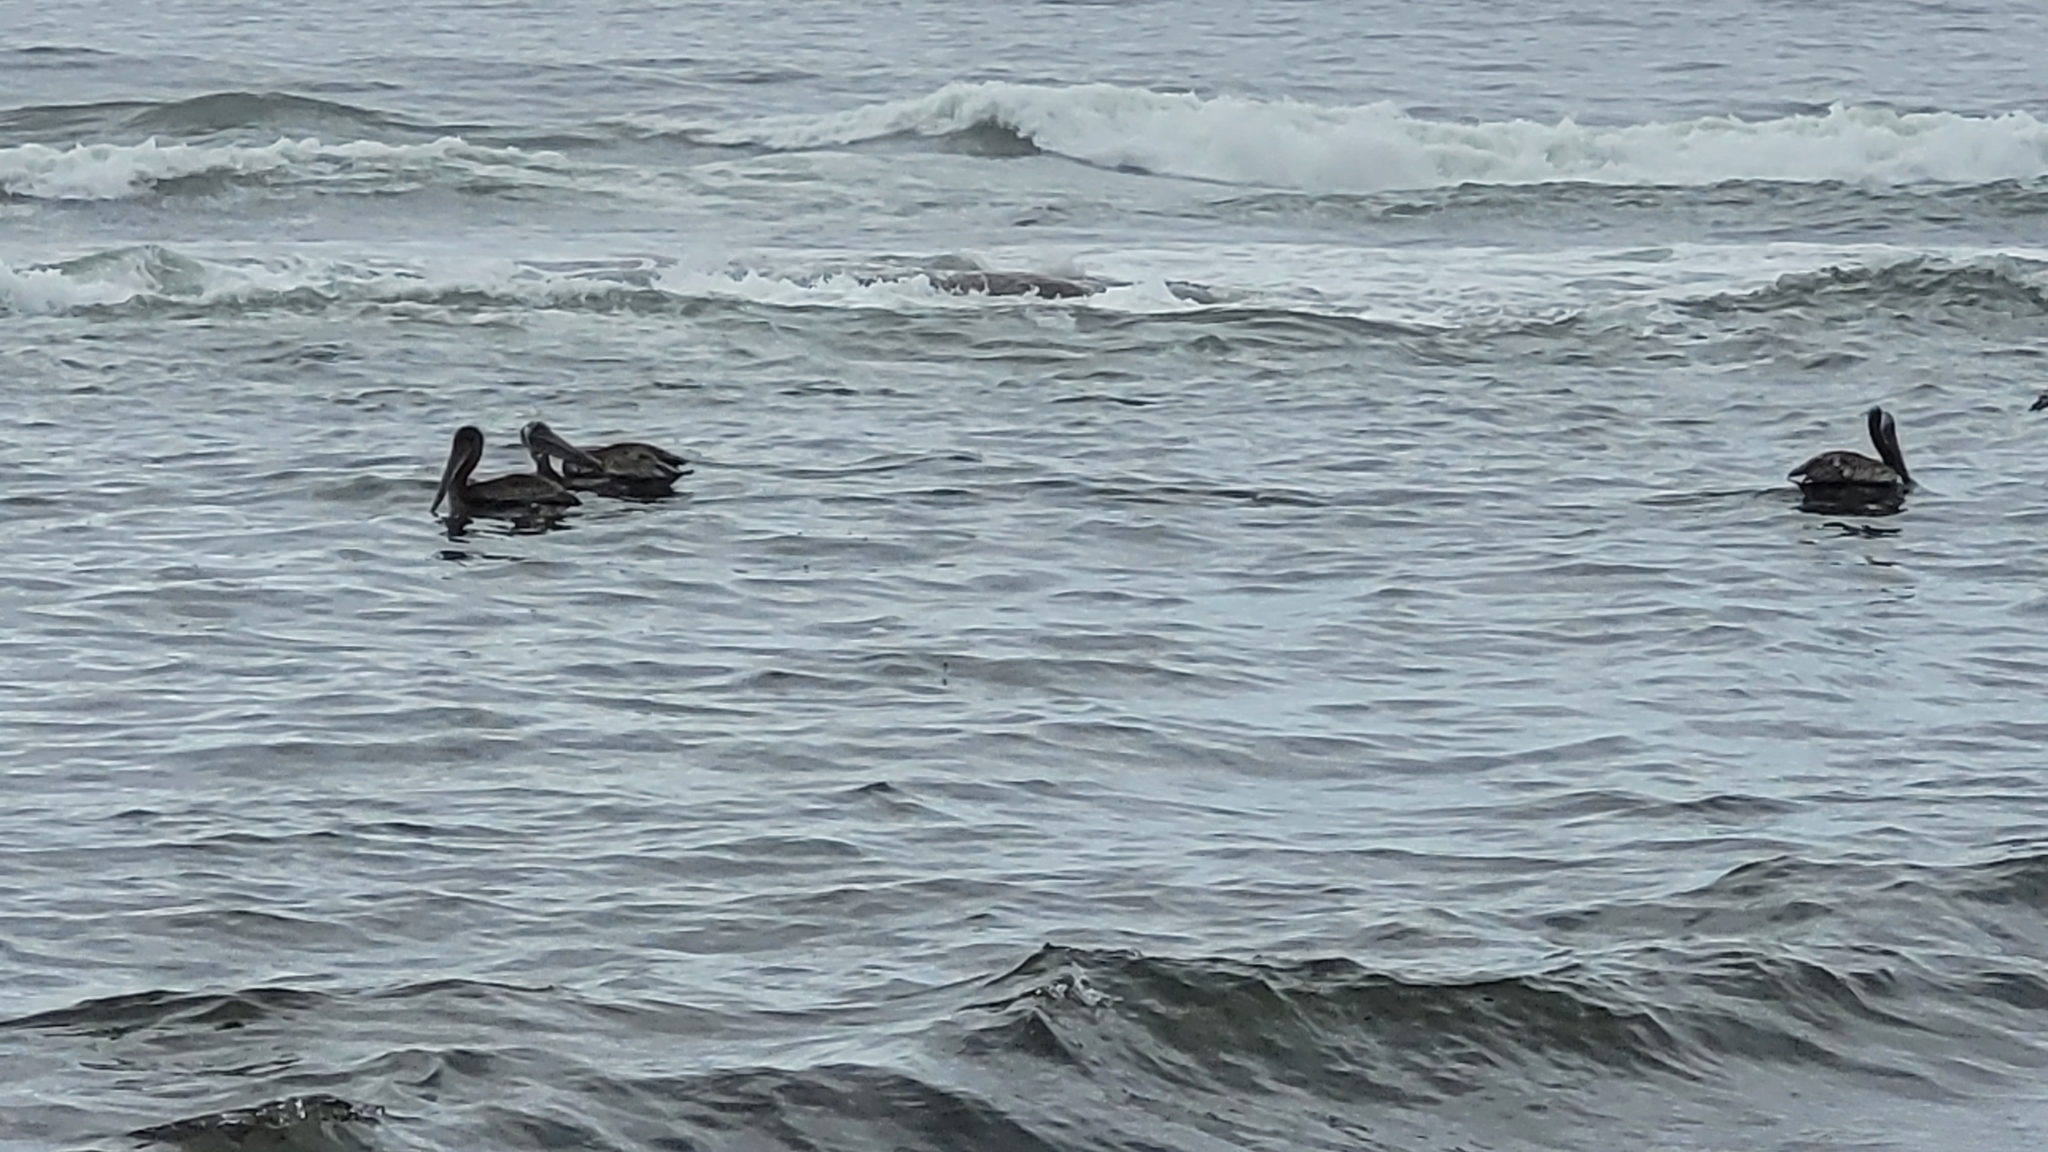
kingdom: Animalia
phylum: Chordata
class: Aves
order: Pelecaniformes
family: Pelecanidae
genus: Pelecanus
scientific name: Pelecanus occidentalis
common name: Brown pelican
